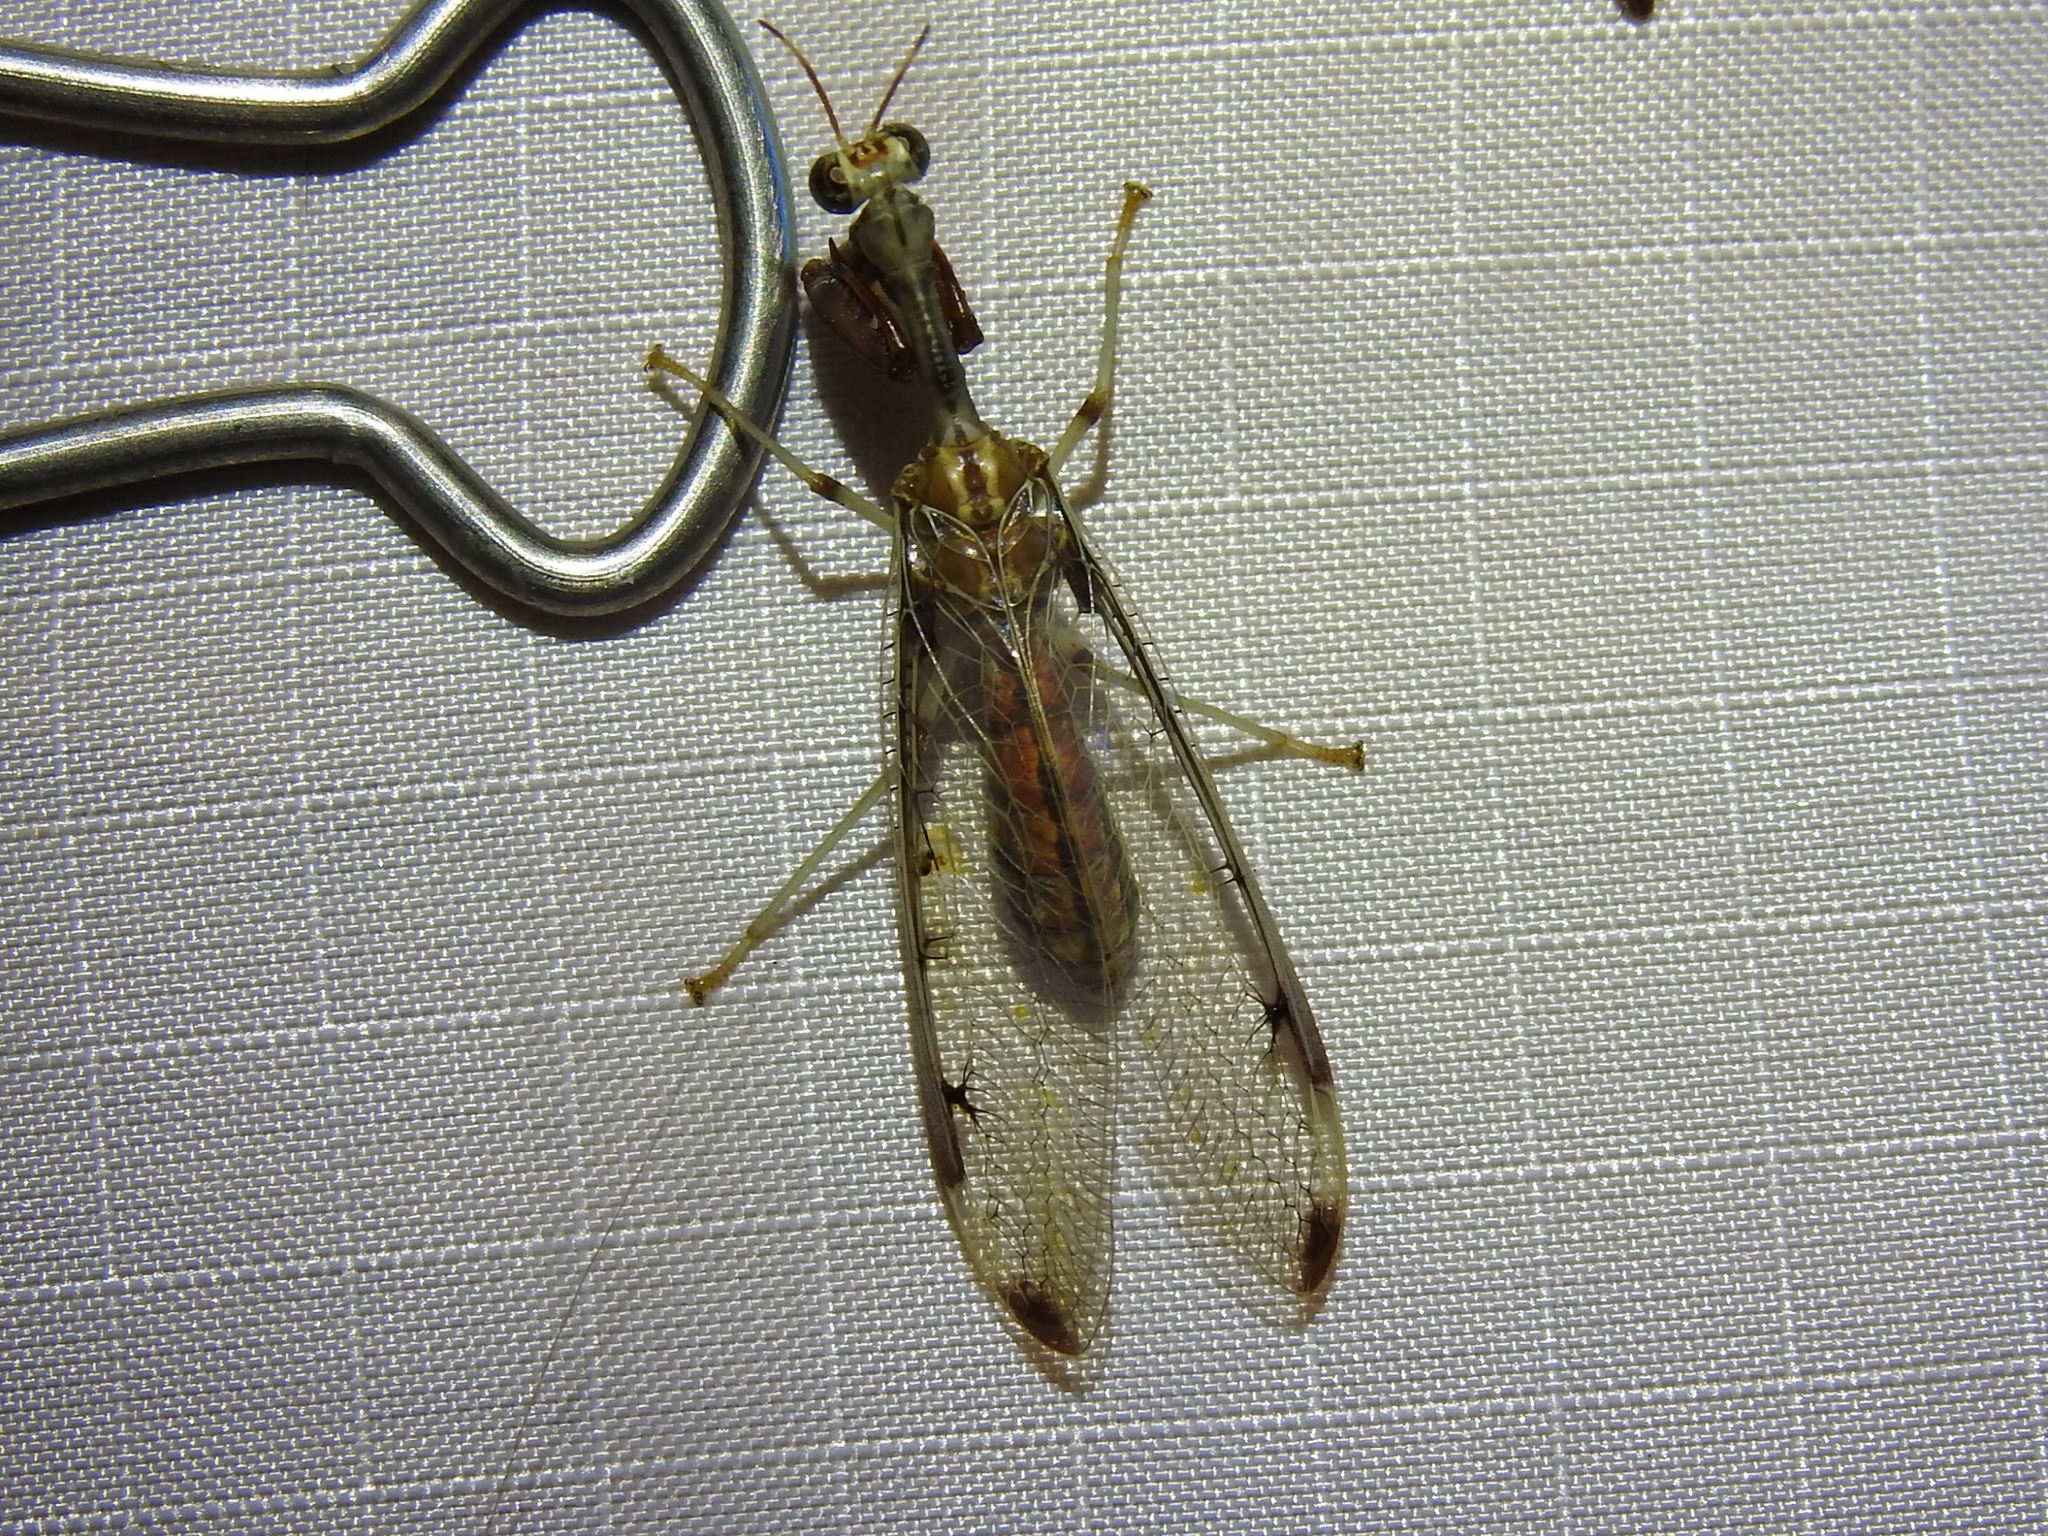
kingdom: Animalia
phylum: Arthropoda
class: Insecta
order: Neuroptera
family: Mantispidae
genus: Dicromantispa
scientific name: Dicromantispa interrupta
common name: Four-spotted mantidfly
